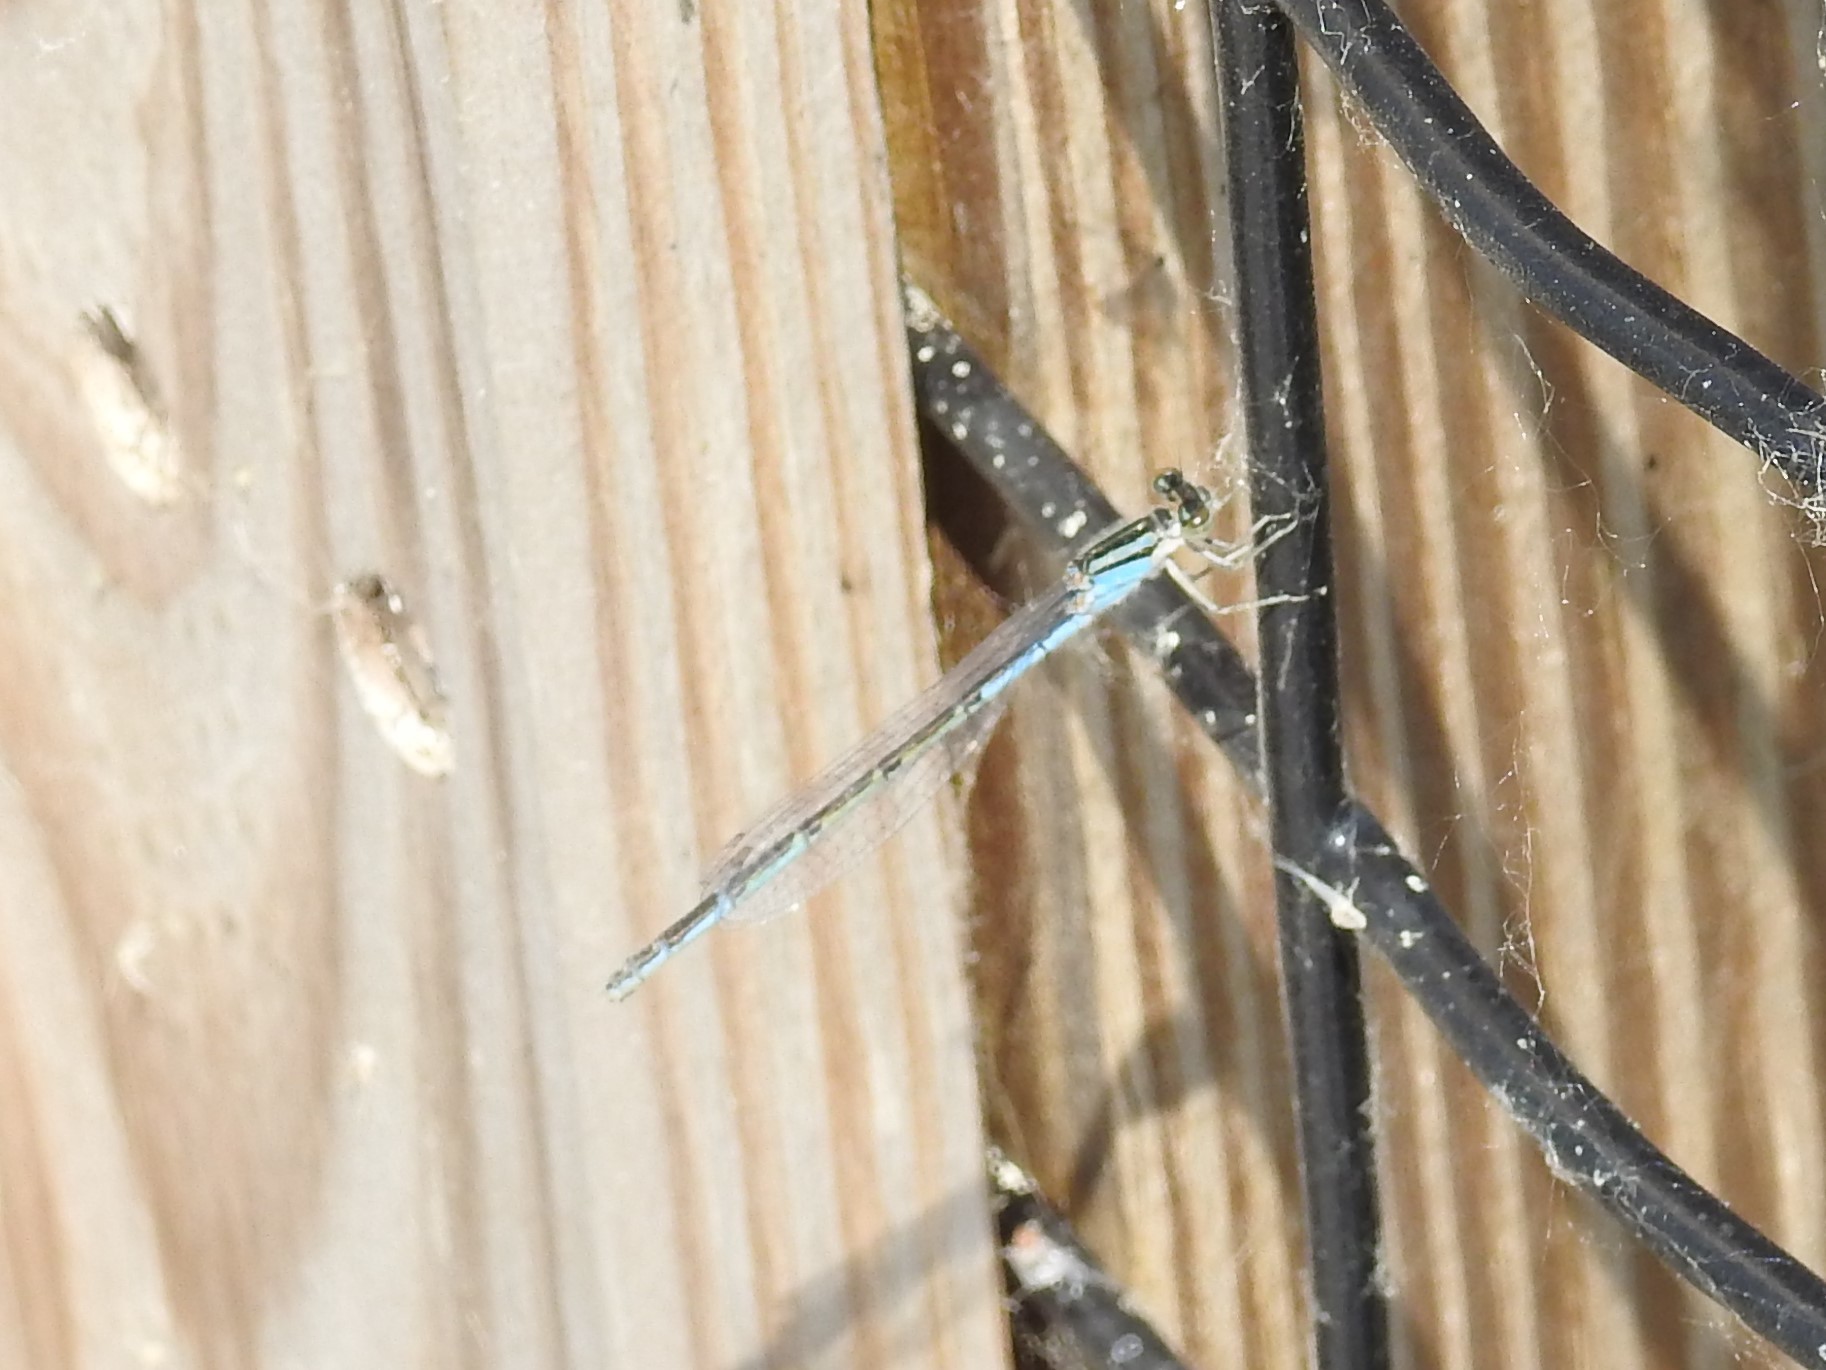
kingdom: Animalia
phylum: Arthropoda
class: Insecta
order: Odonata
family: Coenagrionidae
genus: Enallagma
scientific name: Enallagma
